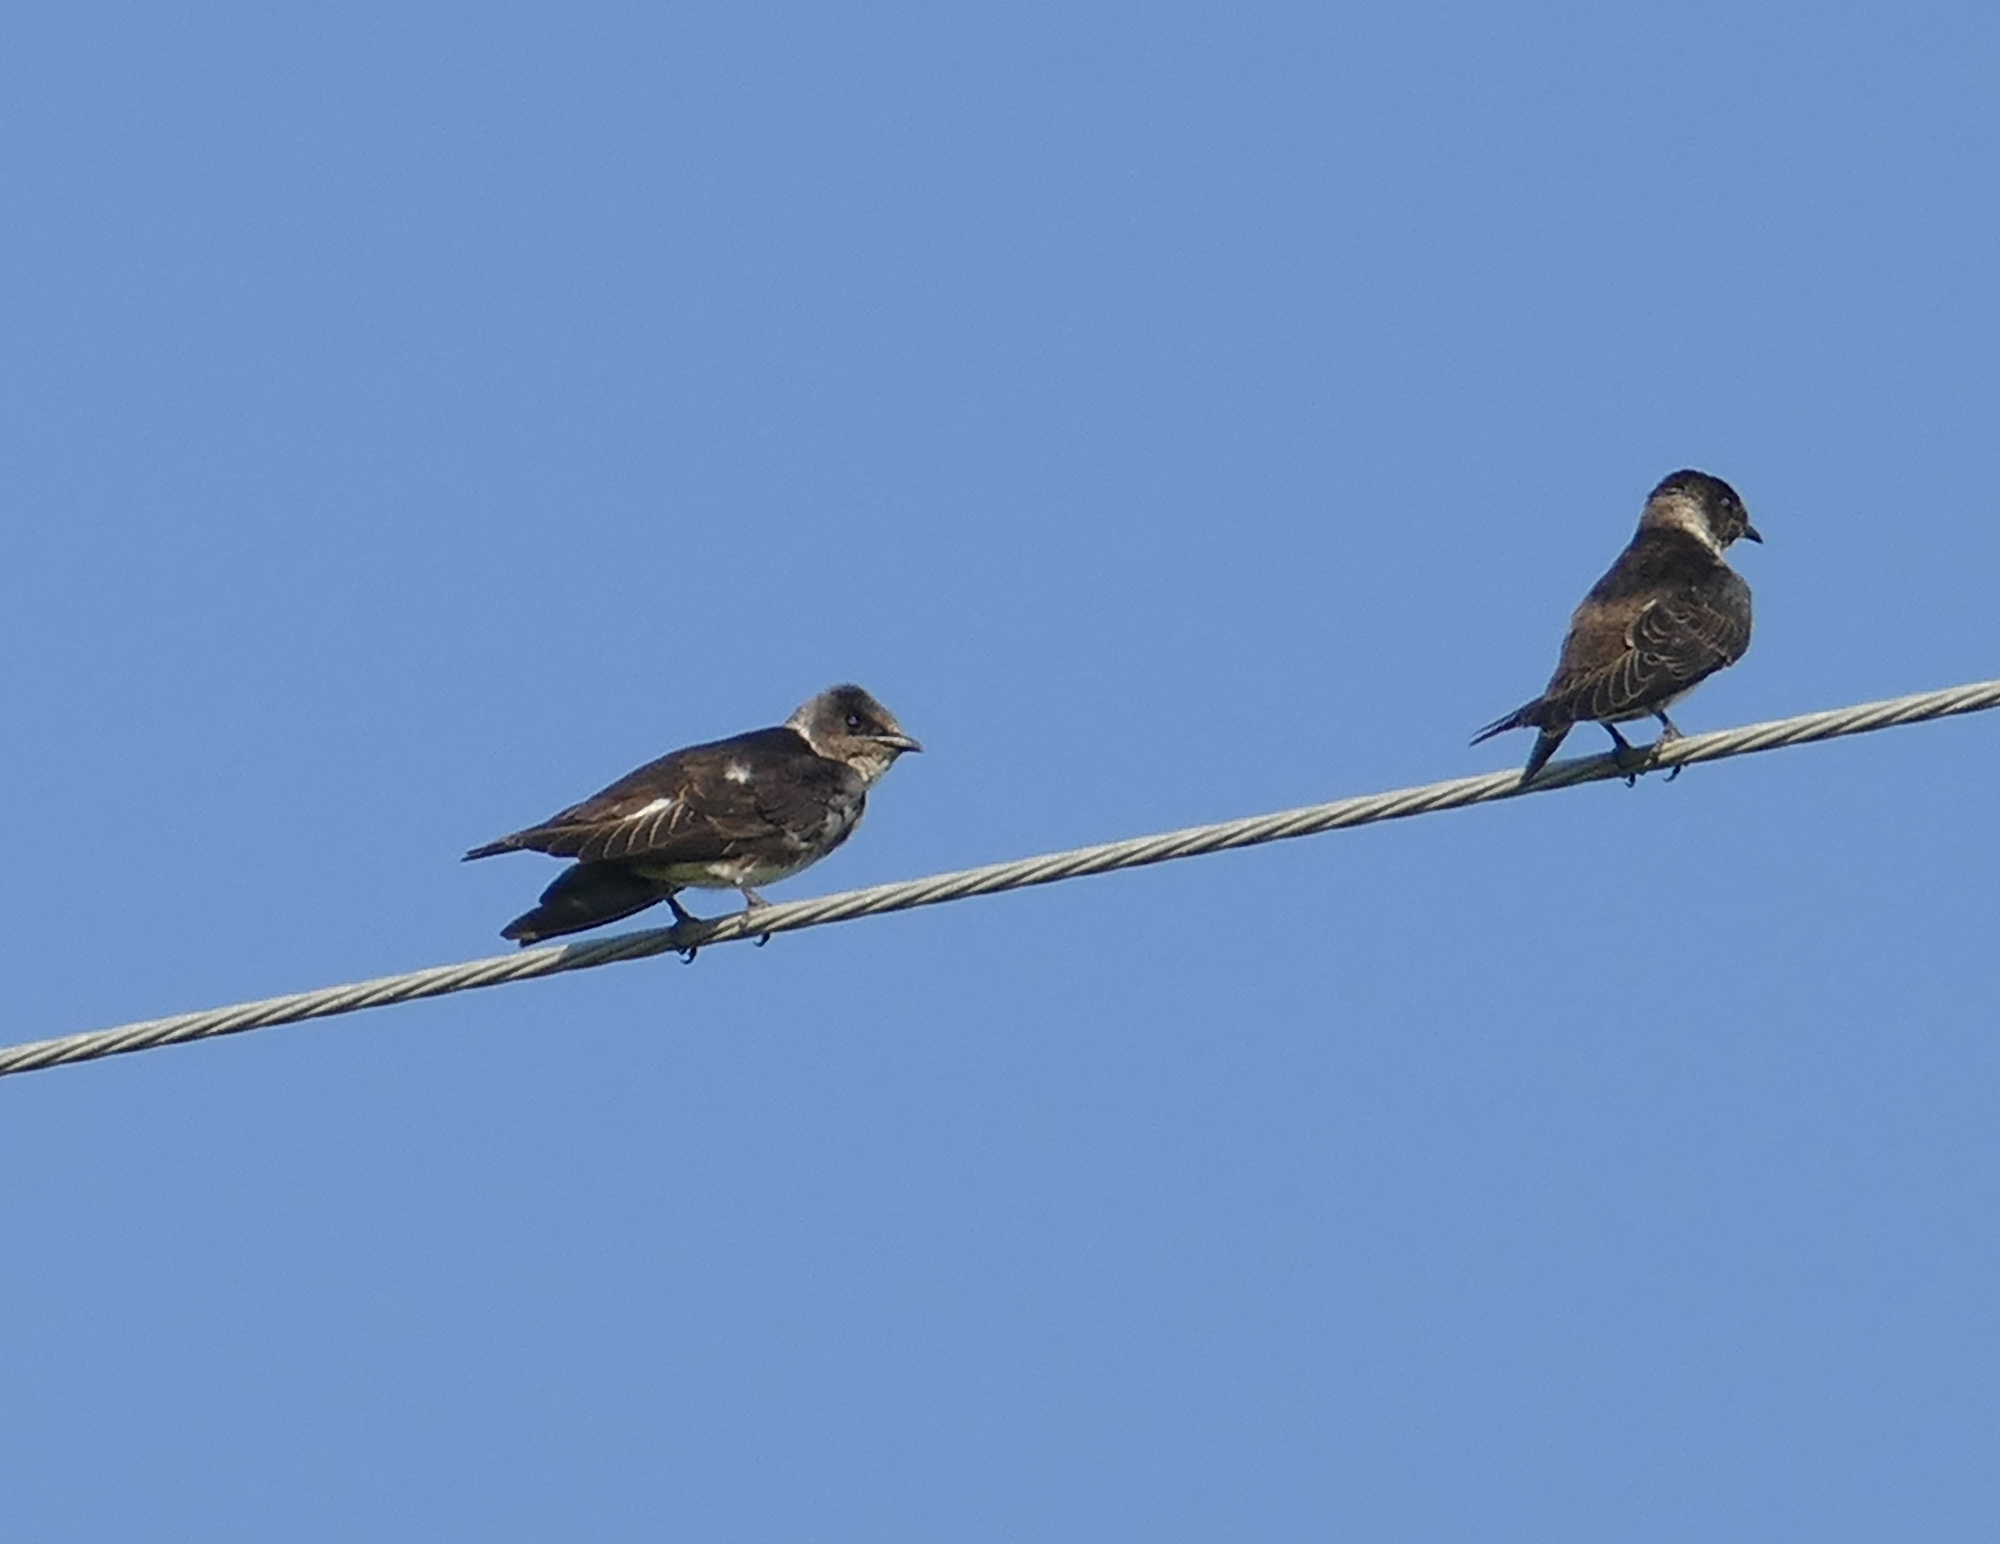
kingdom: Animalia
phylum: Chordata
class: Aves
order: Passeriformes
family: Hirundinidae
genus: Progne
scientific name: Progne subis
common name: Purple martin
